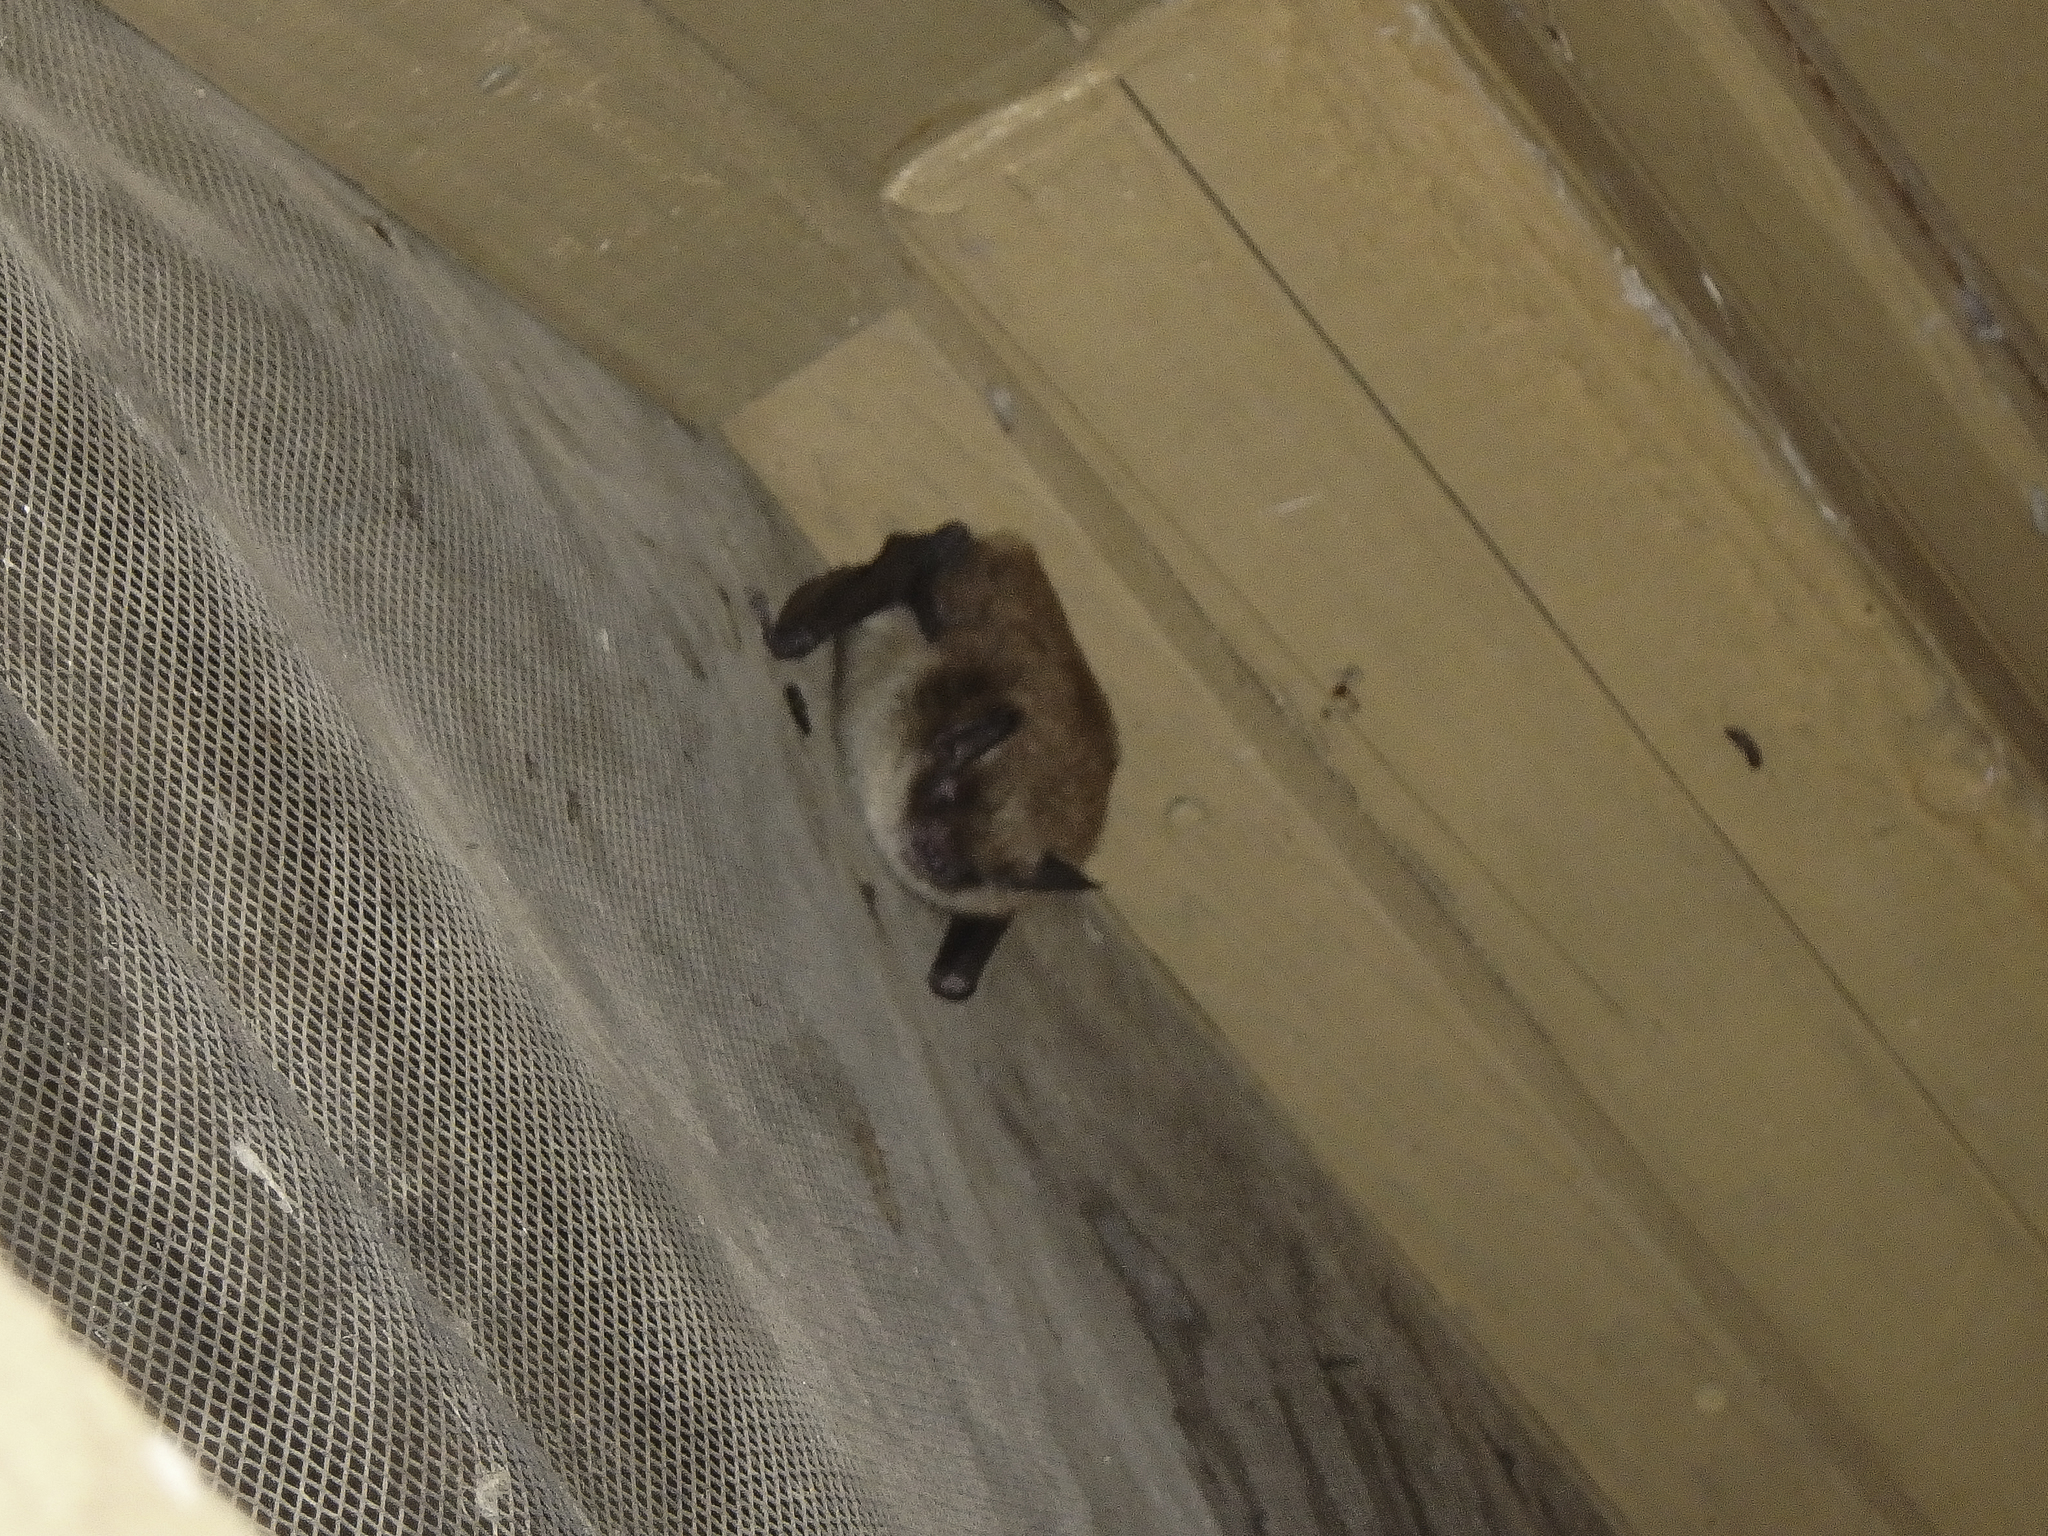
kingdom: Animalia
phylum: Chordata
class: Mammalia
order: Chiroptera
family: Vespertilionidae
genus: Myotis
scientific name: Myotis lucifugus
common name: Little brown bat
